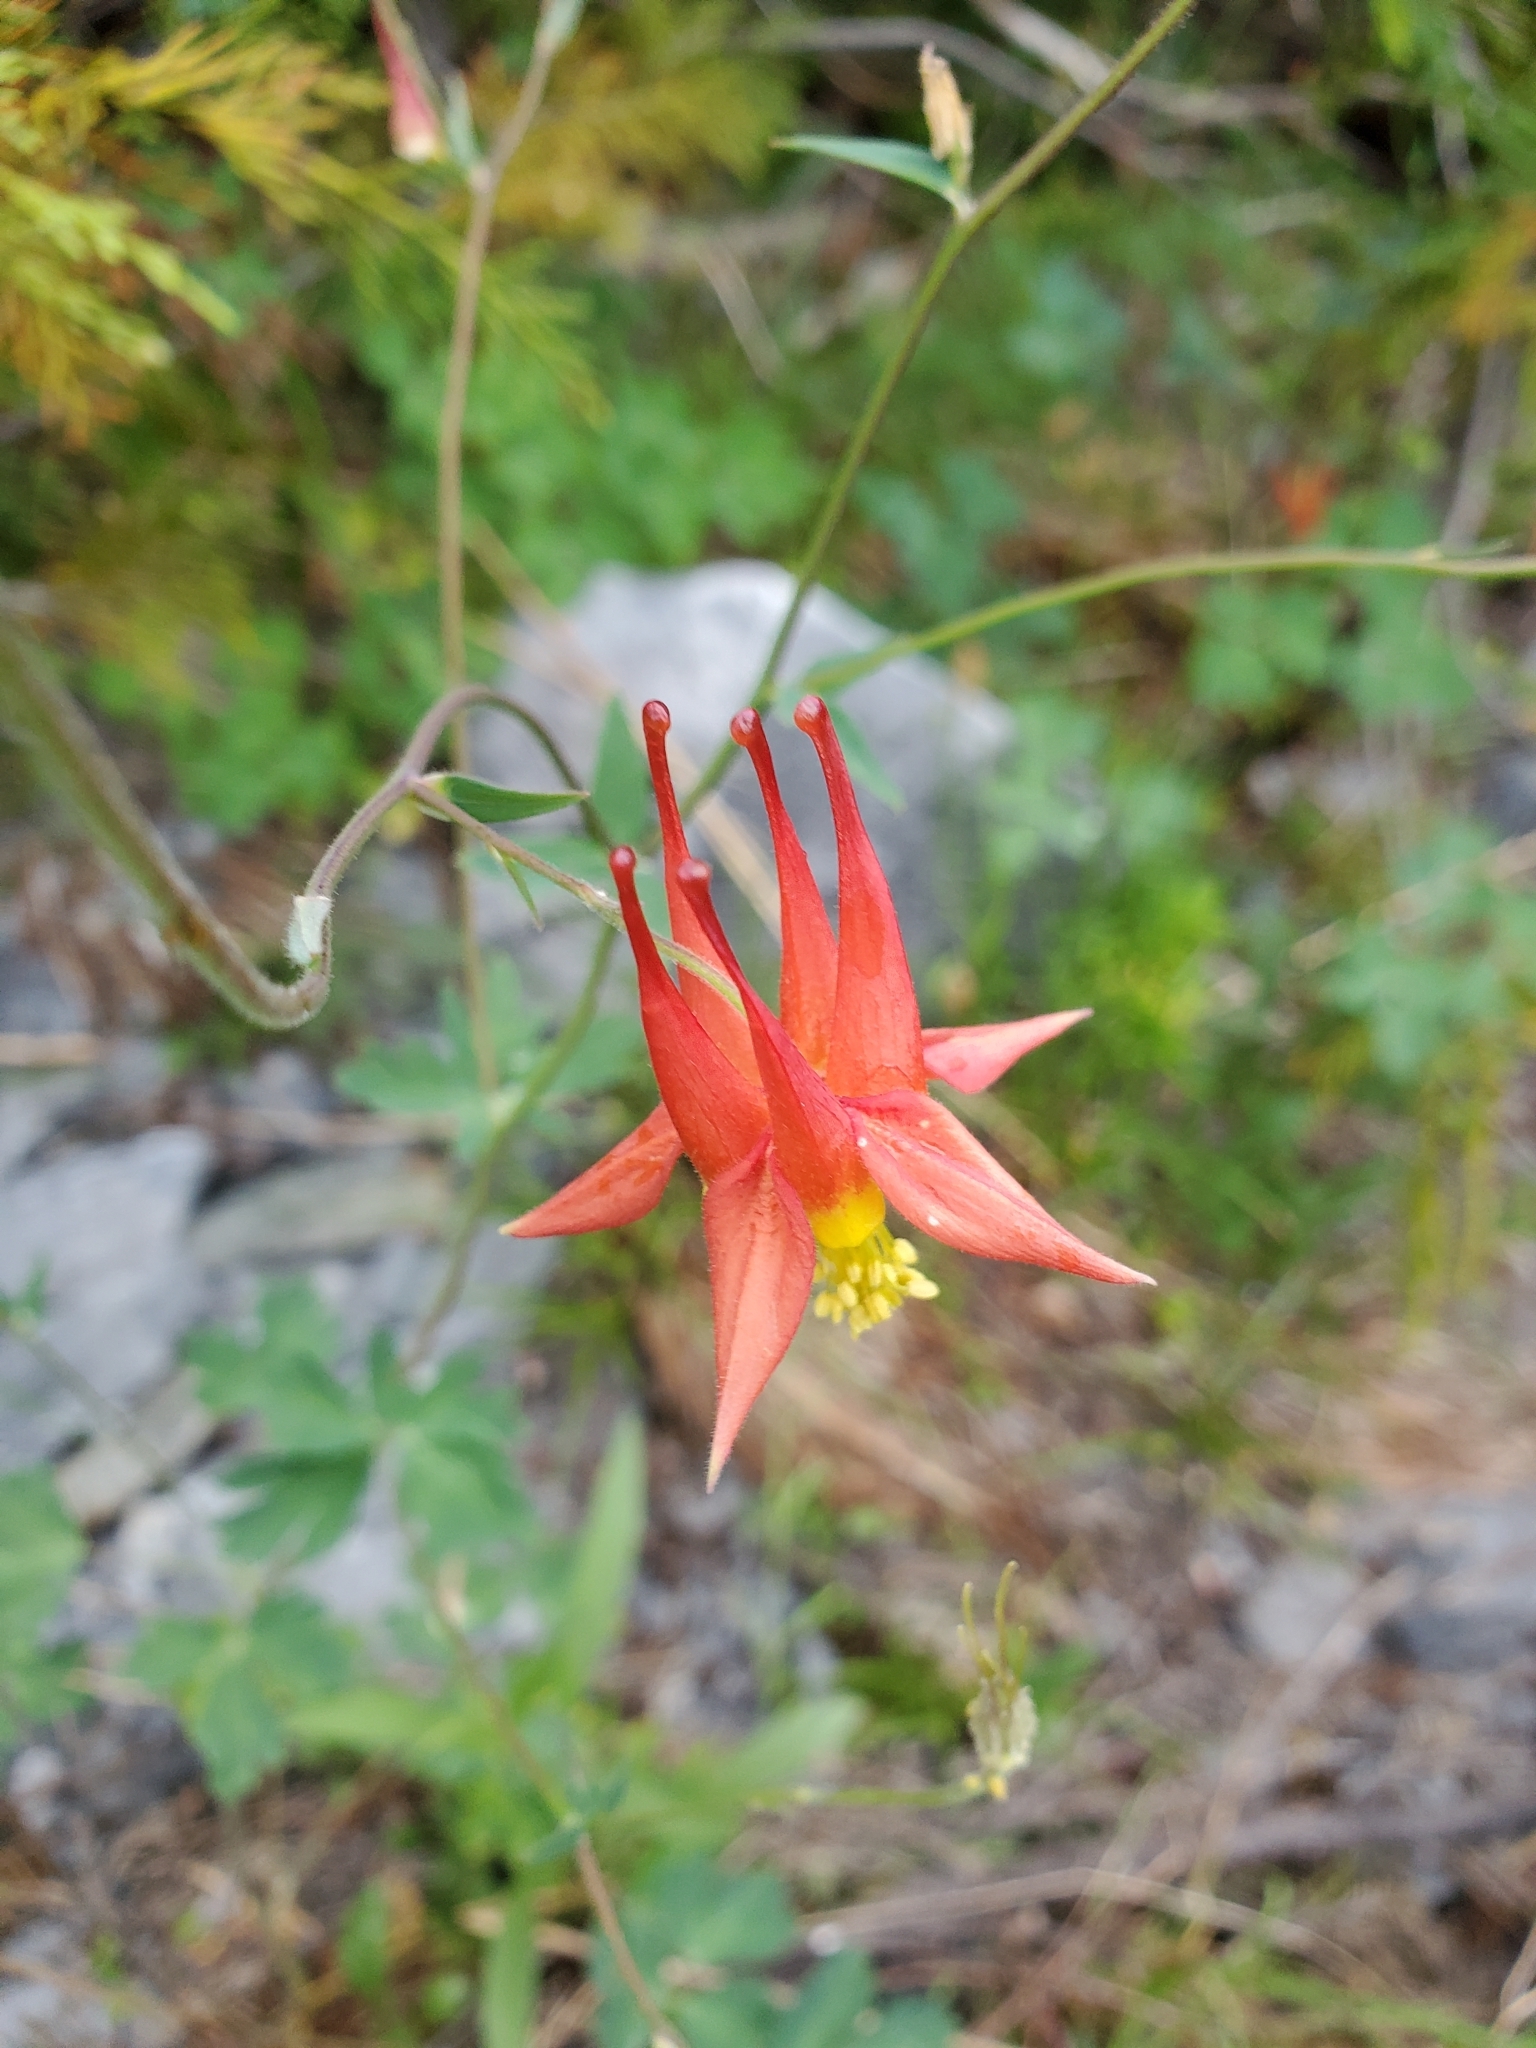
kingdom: Plantae
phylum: Tracheophyta
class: Magnoliopsida
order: Ranunculales
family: Ranunculaceae
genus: Aquilegia
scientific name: Aquilegia formosa
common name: Sitka columbine
